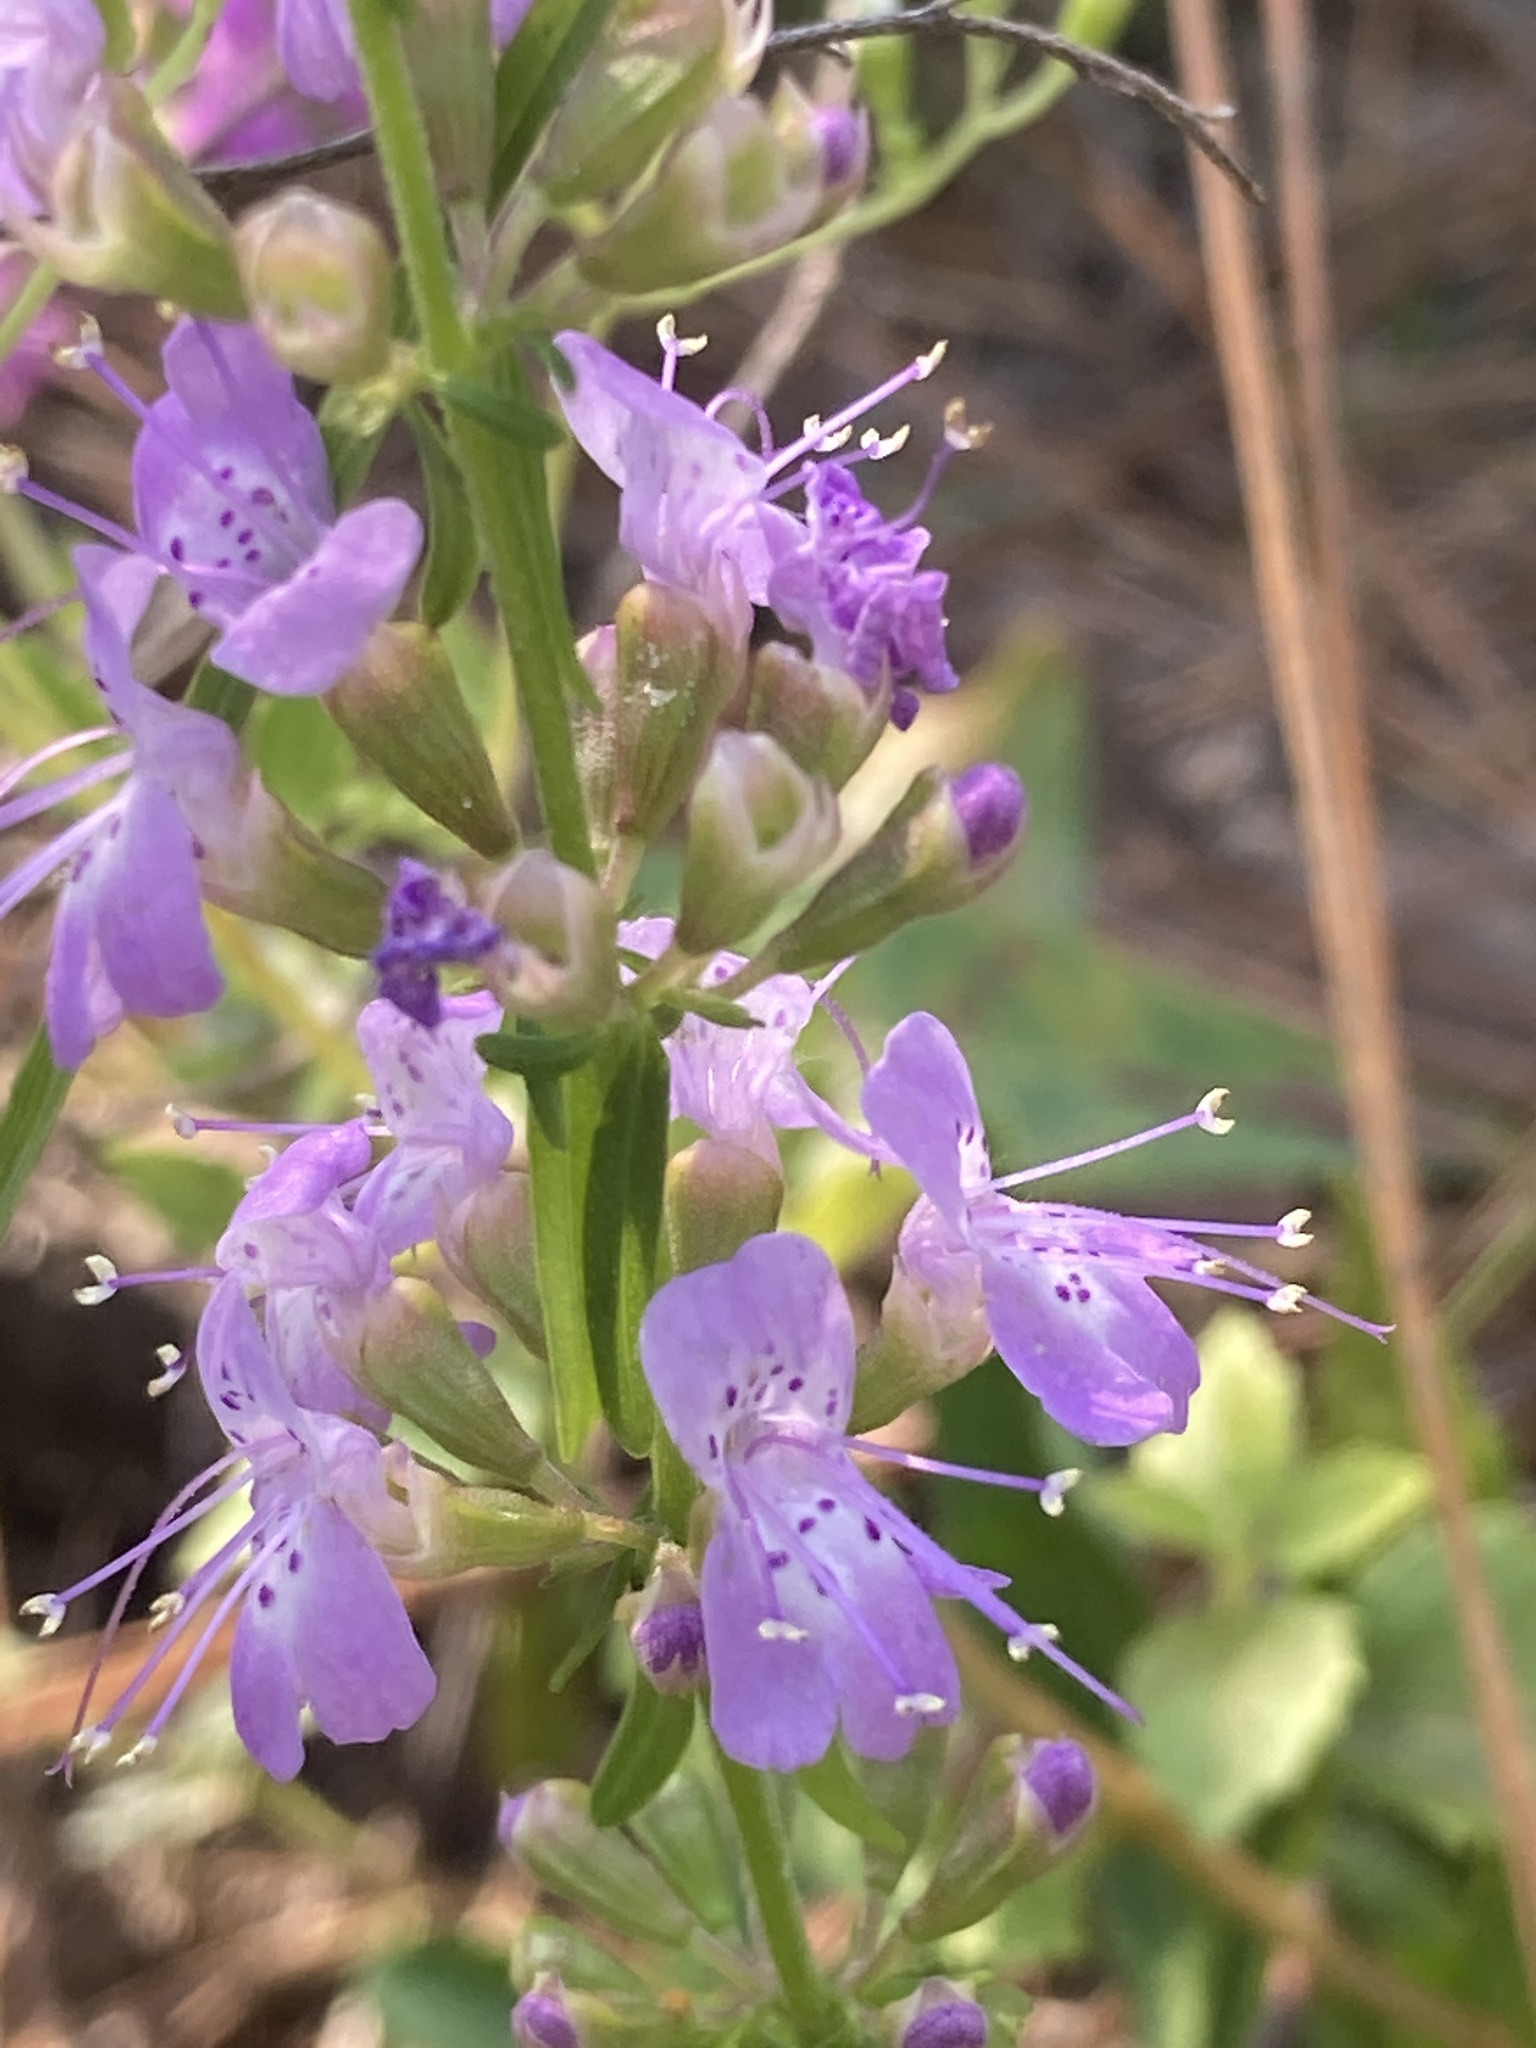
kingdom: Plantae
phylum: Tracheophyta
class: Magnoliopsida
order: Lamiales
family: Lamiaceae
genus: Dicerandra
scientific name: Dicerandra densiflora
